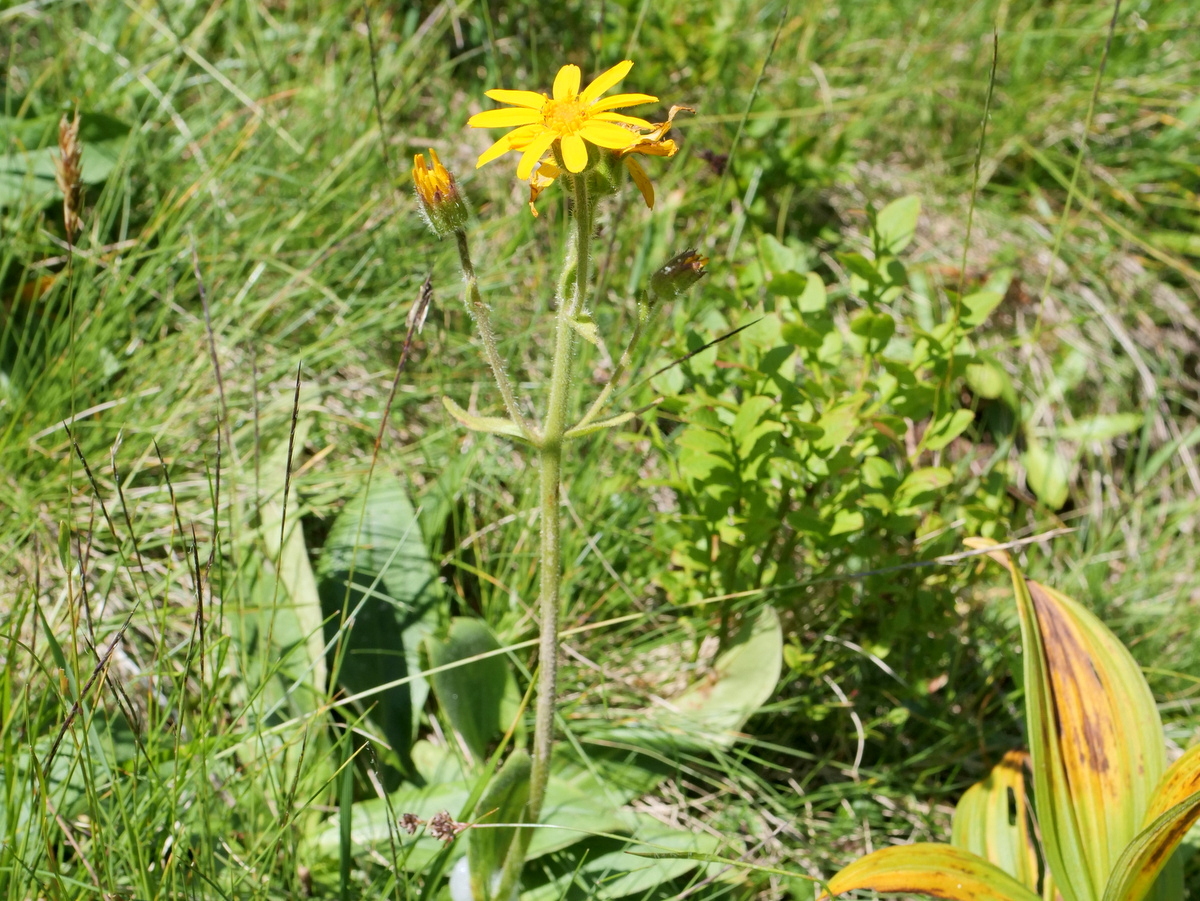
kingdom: Plantae
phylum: Tracheophyta
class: Magnoliopsida
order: Asterales
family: Asteraceae
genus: Arnica
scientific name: Arnica montana
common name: Leopard's bane
